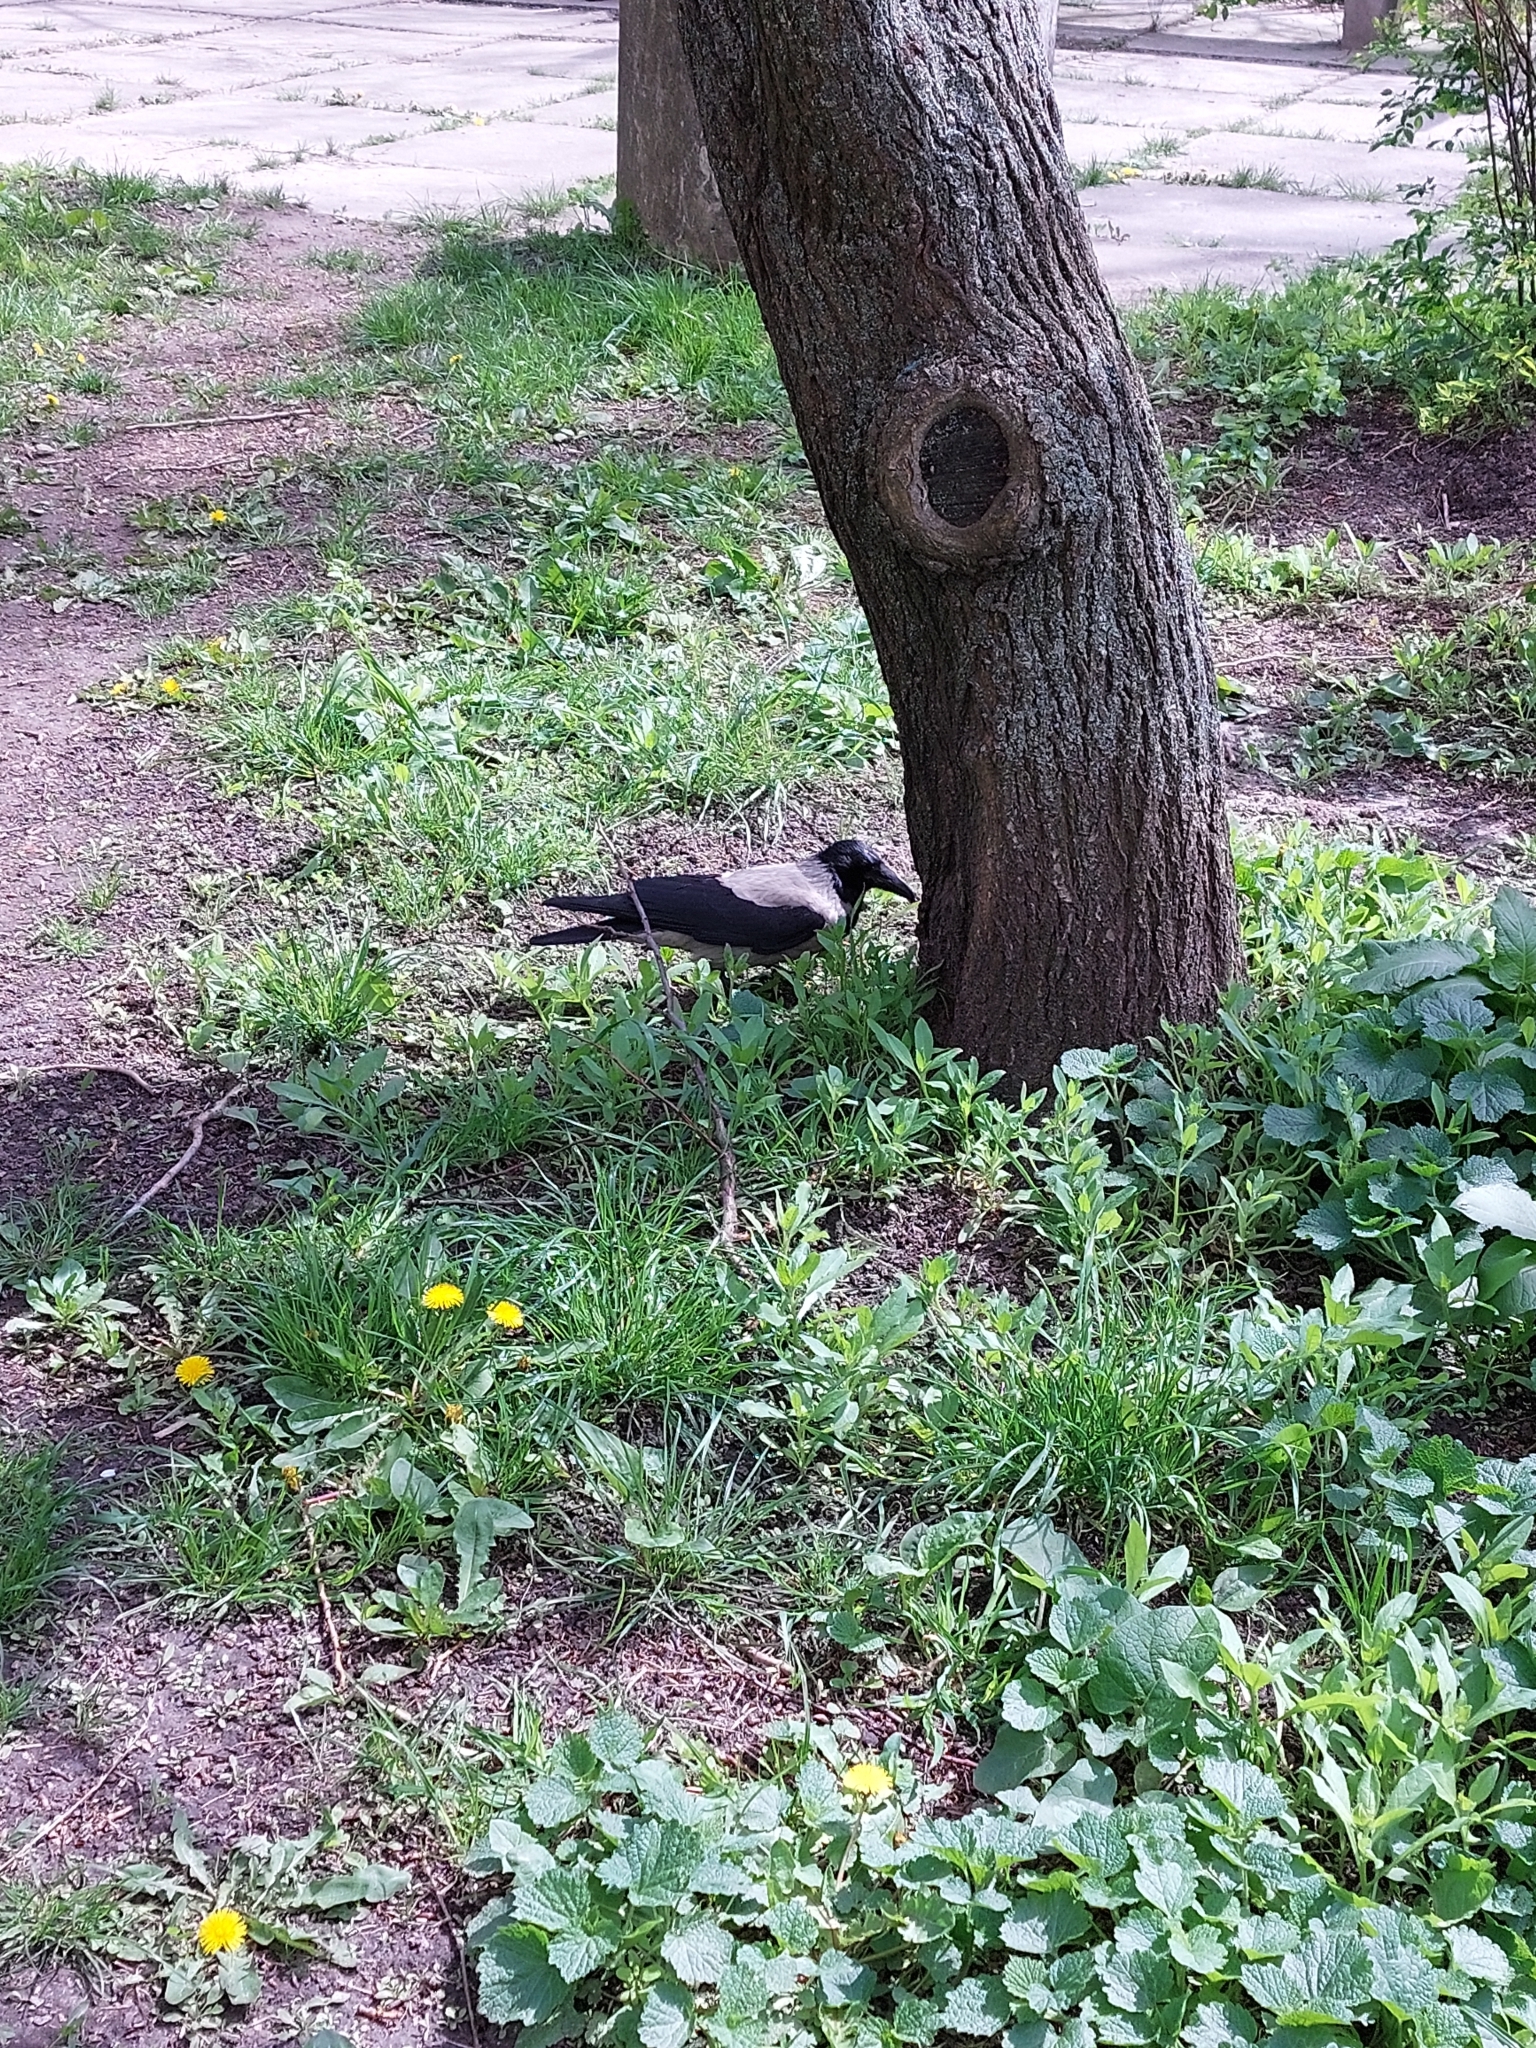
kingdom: Animalia
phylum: Chordata
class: Aves
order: Passeriformes
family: Corvidae
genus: Corvus
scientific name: Corvus cornix
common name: Hooded crow
